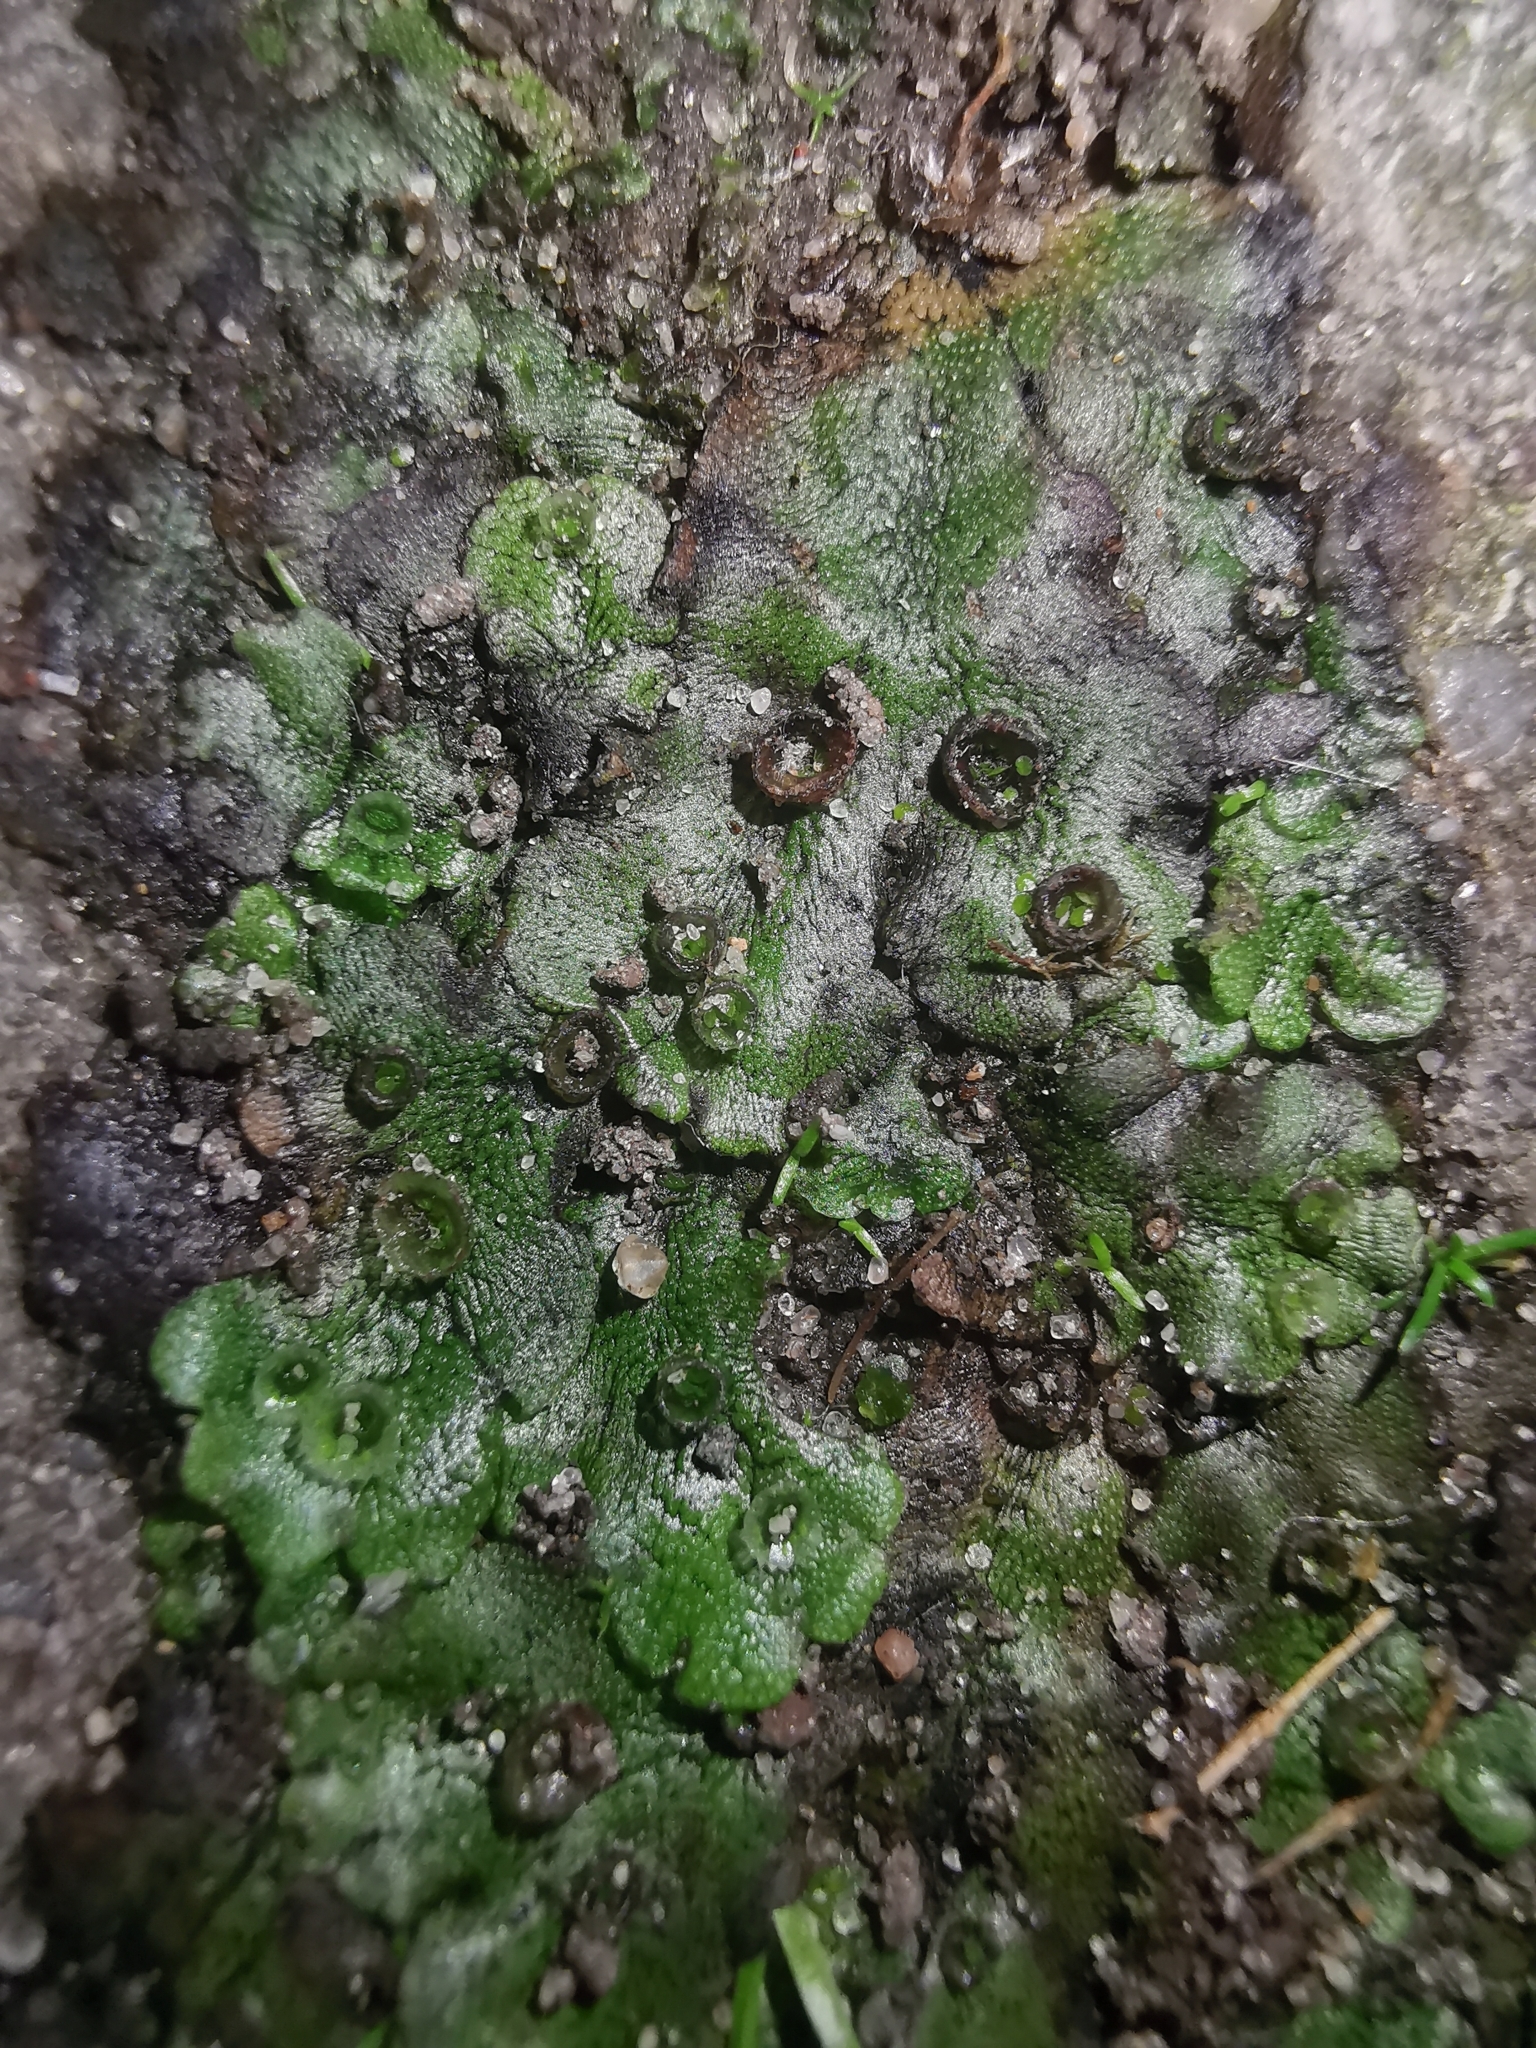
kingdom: Plantae
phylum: Marchantiophyta
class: Marchantiopsida
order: Marchantiales
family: Marchantiaceae
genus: Marchantia
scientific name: Marchantia polymorpha
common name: Common liverwort
